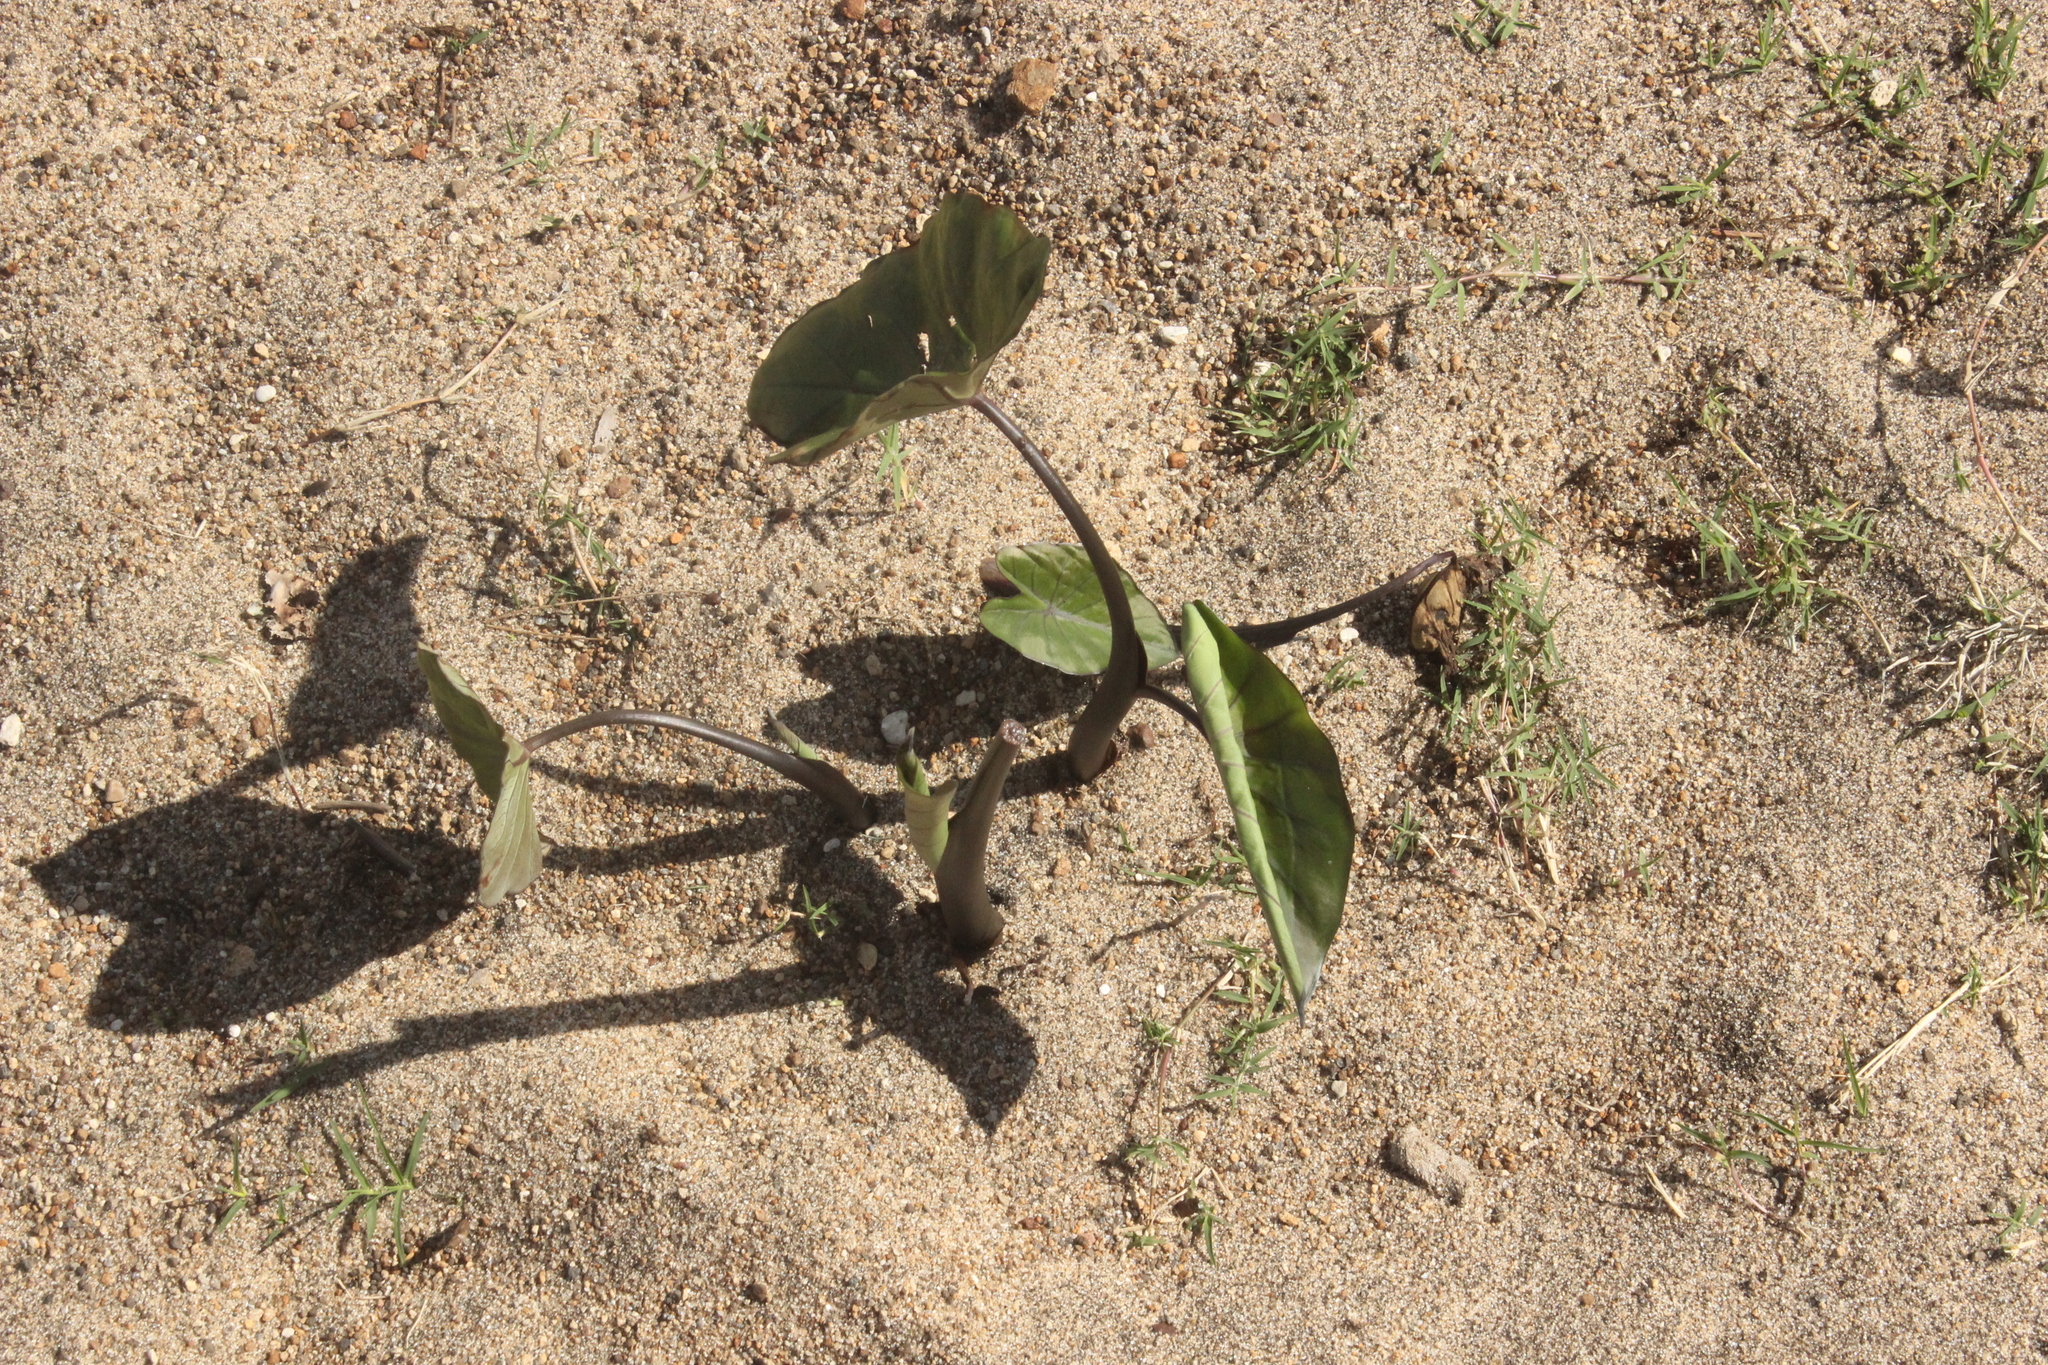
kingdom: Plantae
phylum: Tracheophyta
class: Liliopsida
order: Alismatales
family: Araceae
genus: Colocasia
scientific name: Colocasia fontanesii
